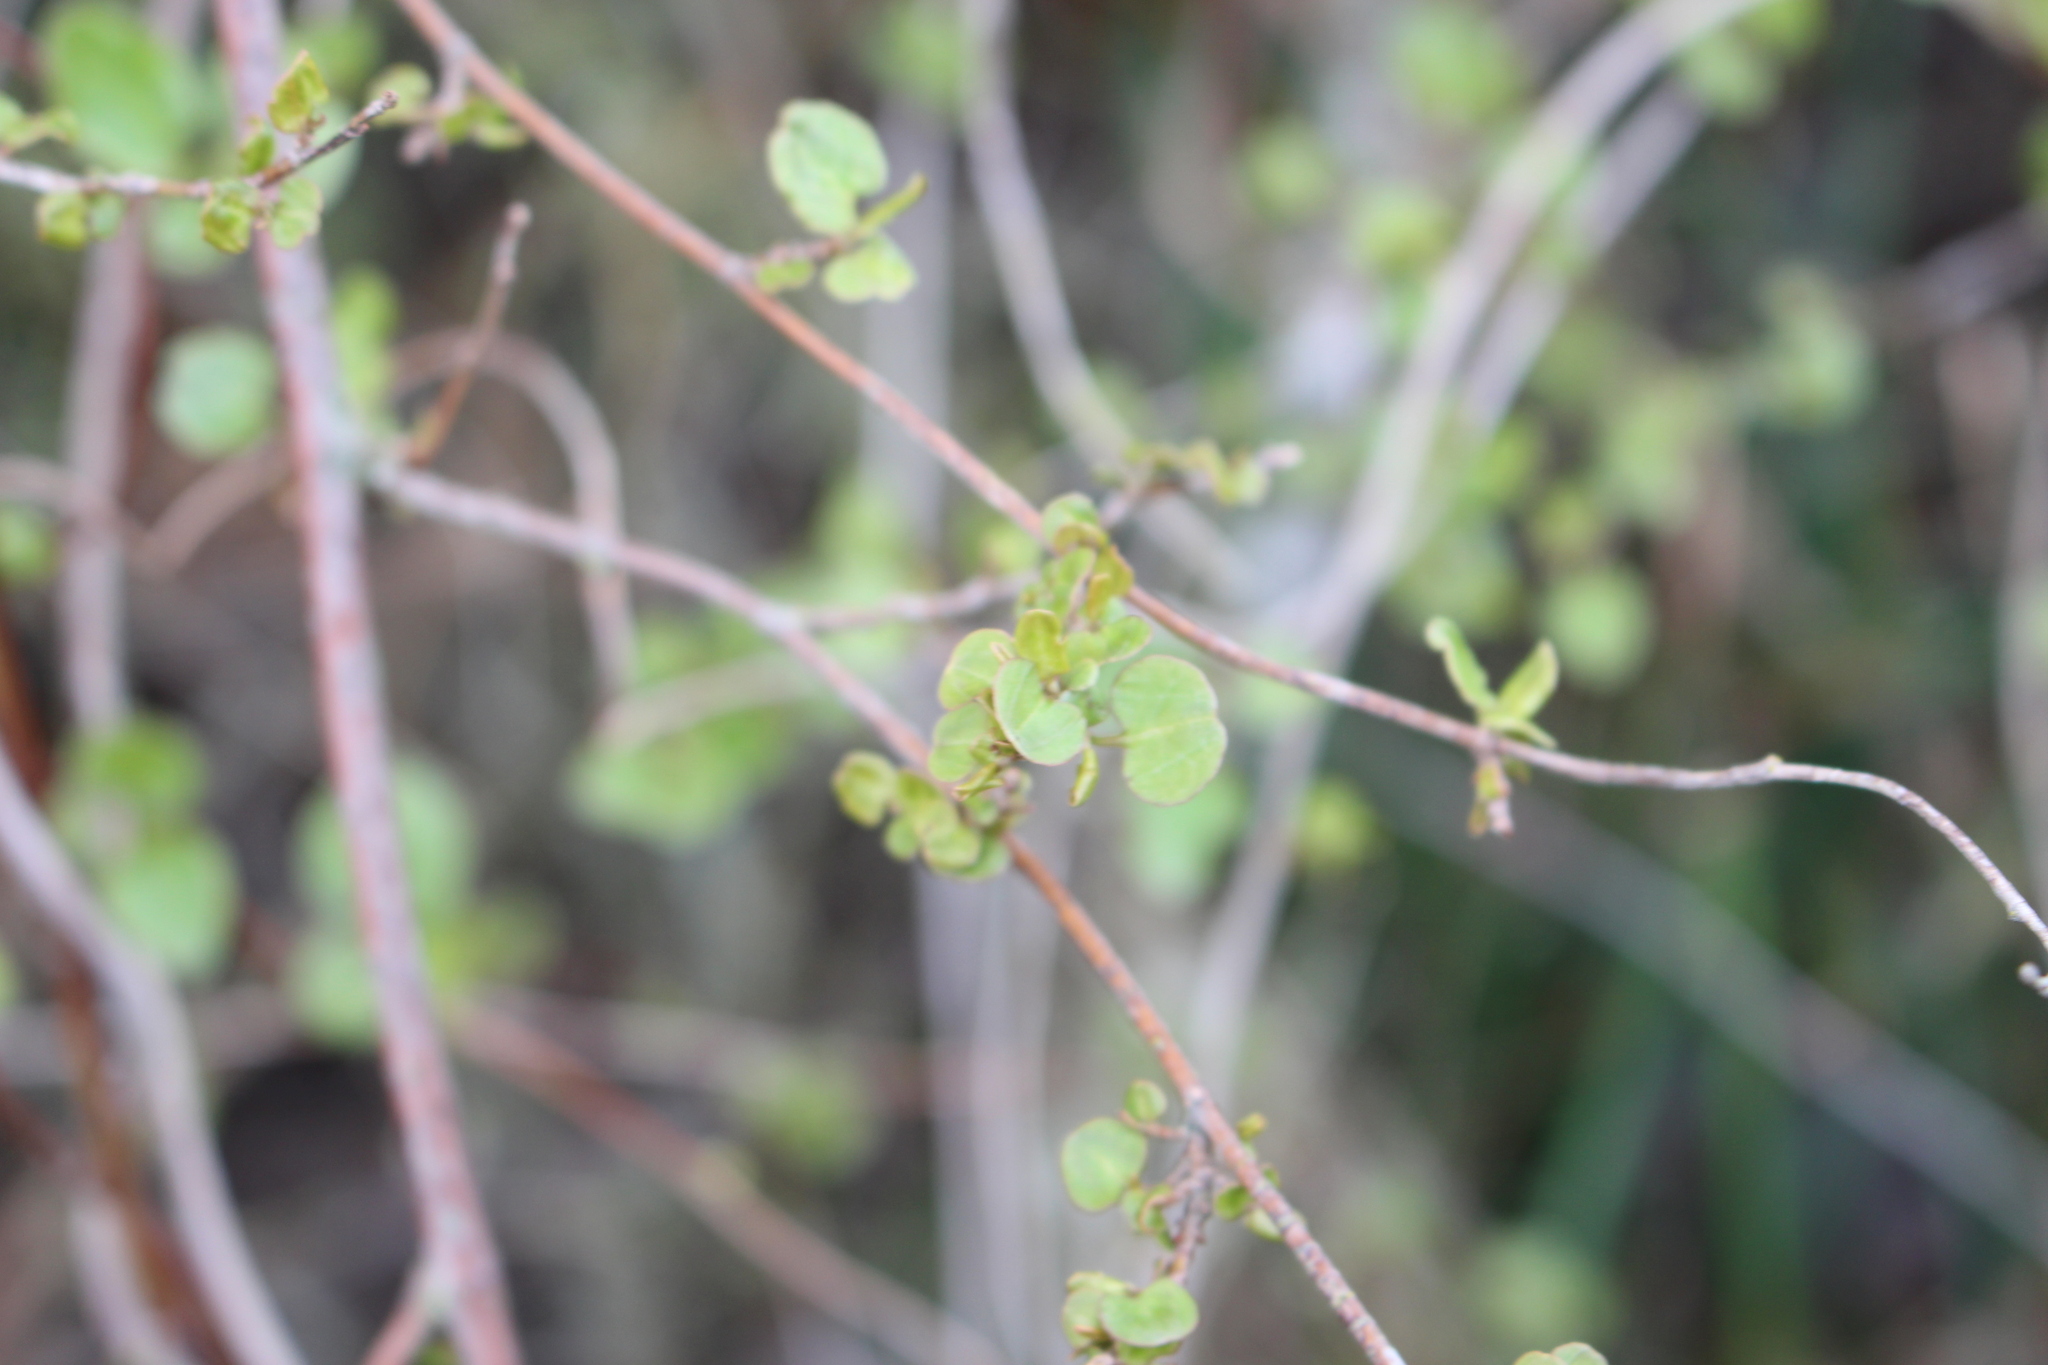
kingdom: Plantae
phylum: Tracheophyta
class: Magnoliopsida
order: Caryophyllales
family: Polygonaceae
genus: Muehlenbeckia
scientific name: Muehlenbeckia complexa
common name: Wireplant
